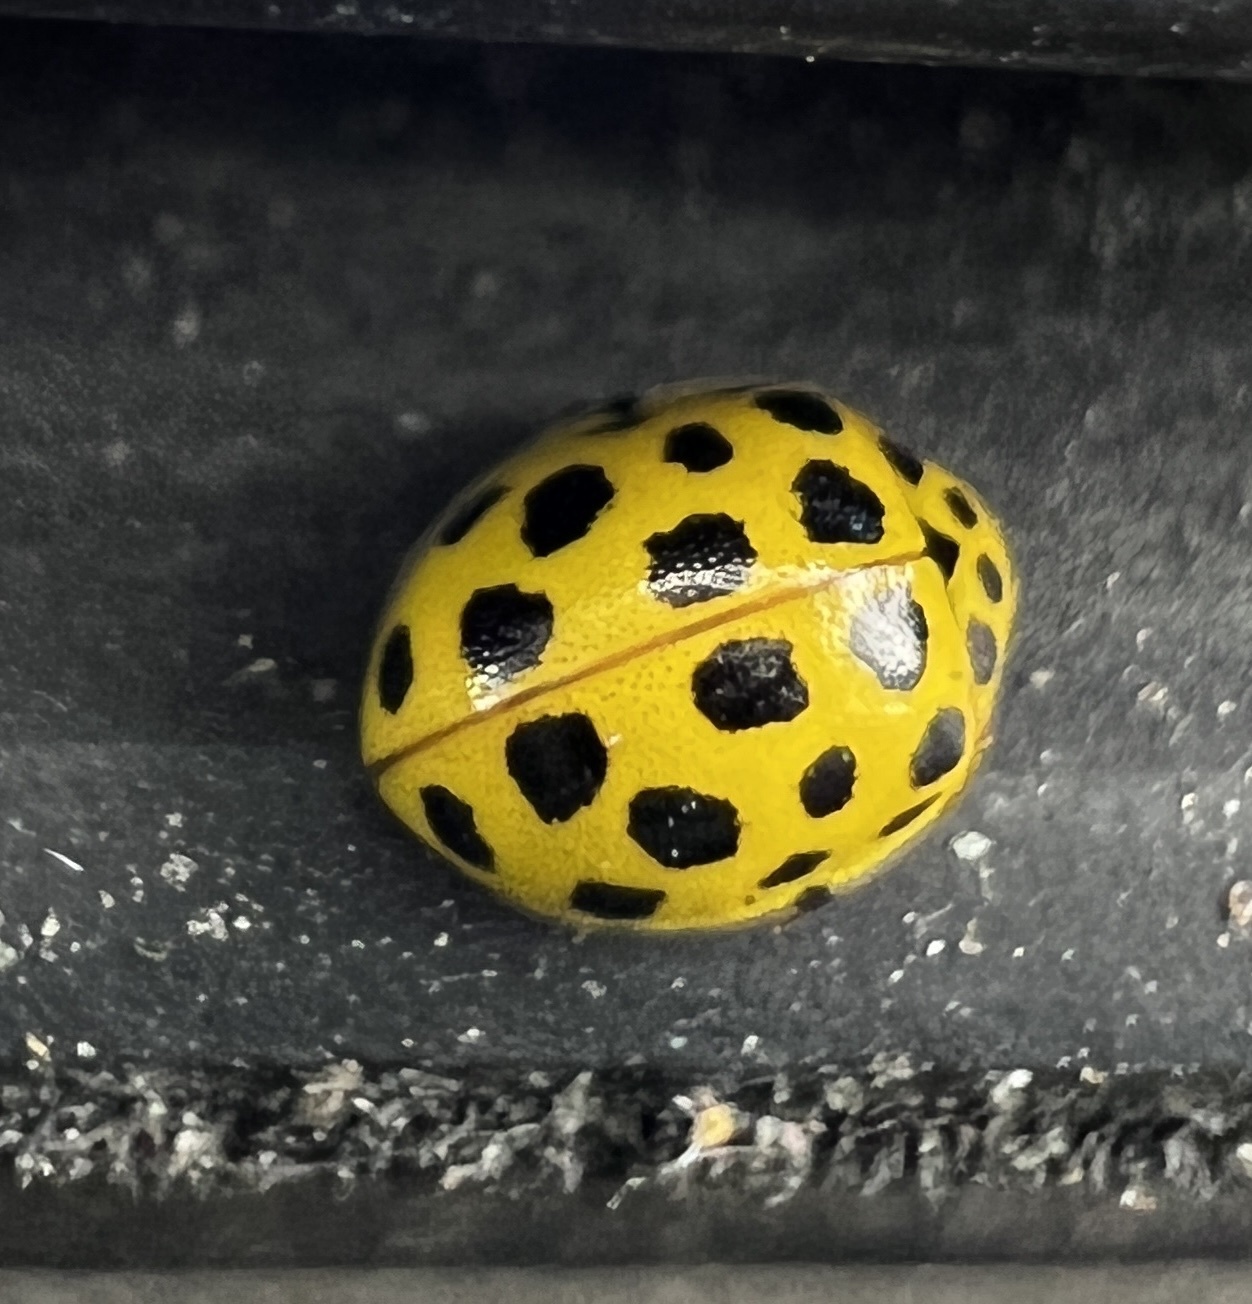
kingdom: Animalia
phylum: Arthropoda
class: Insecta
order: Coleoptera
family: Coccinellidae
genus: Psyllobora
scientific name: Psyllobora vigintiduopunctata
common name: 22-spot ladybird
